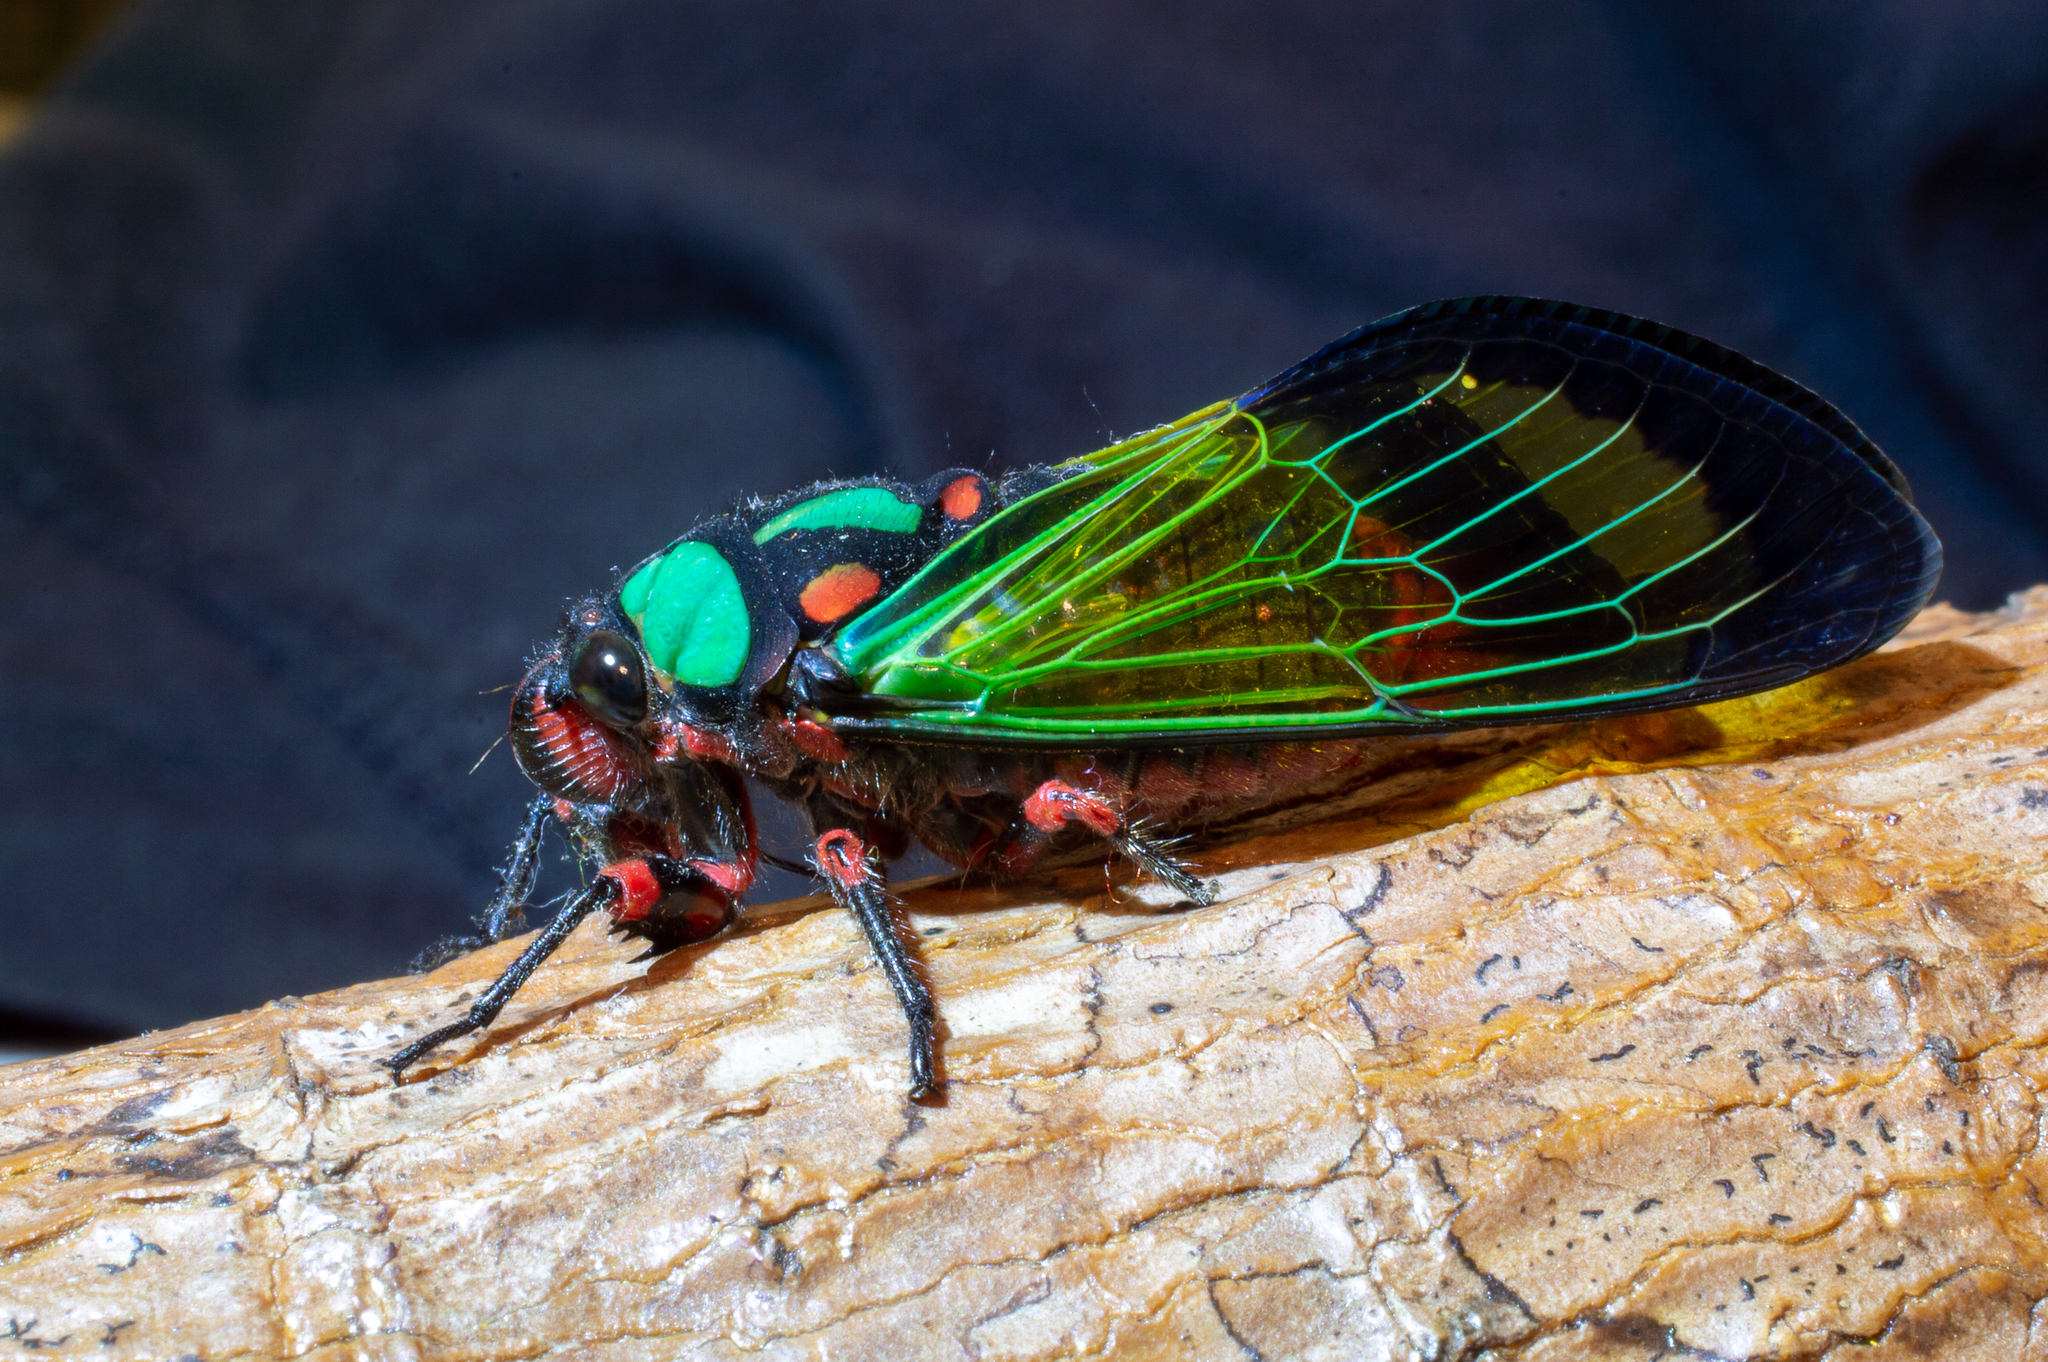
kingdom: Animalia
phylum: Arthropoda
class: Insecta
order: Hemiptera
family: Cicadidae
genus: Carineta
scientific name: Carineta diardi
